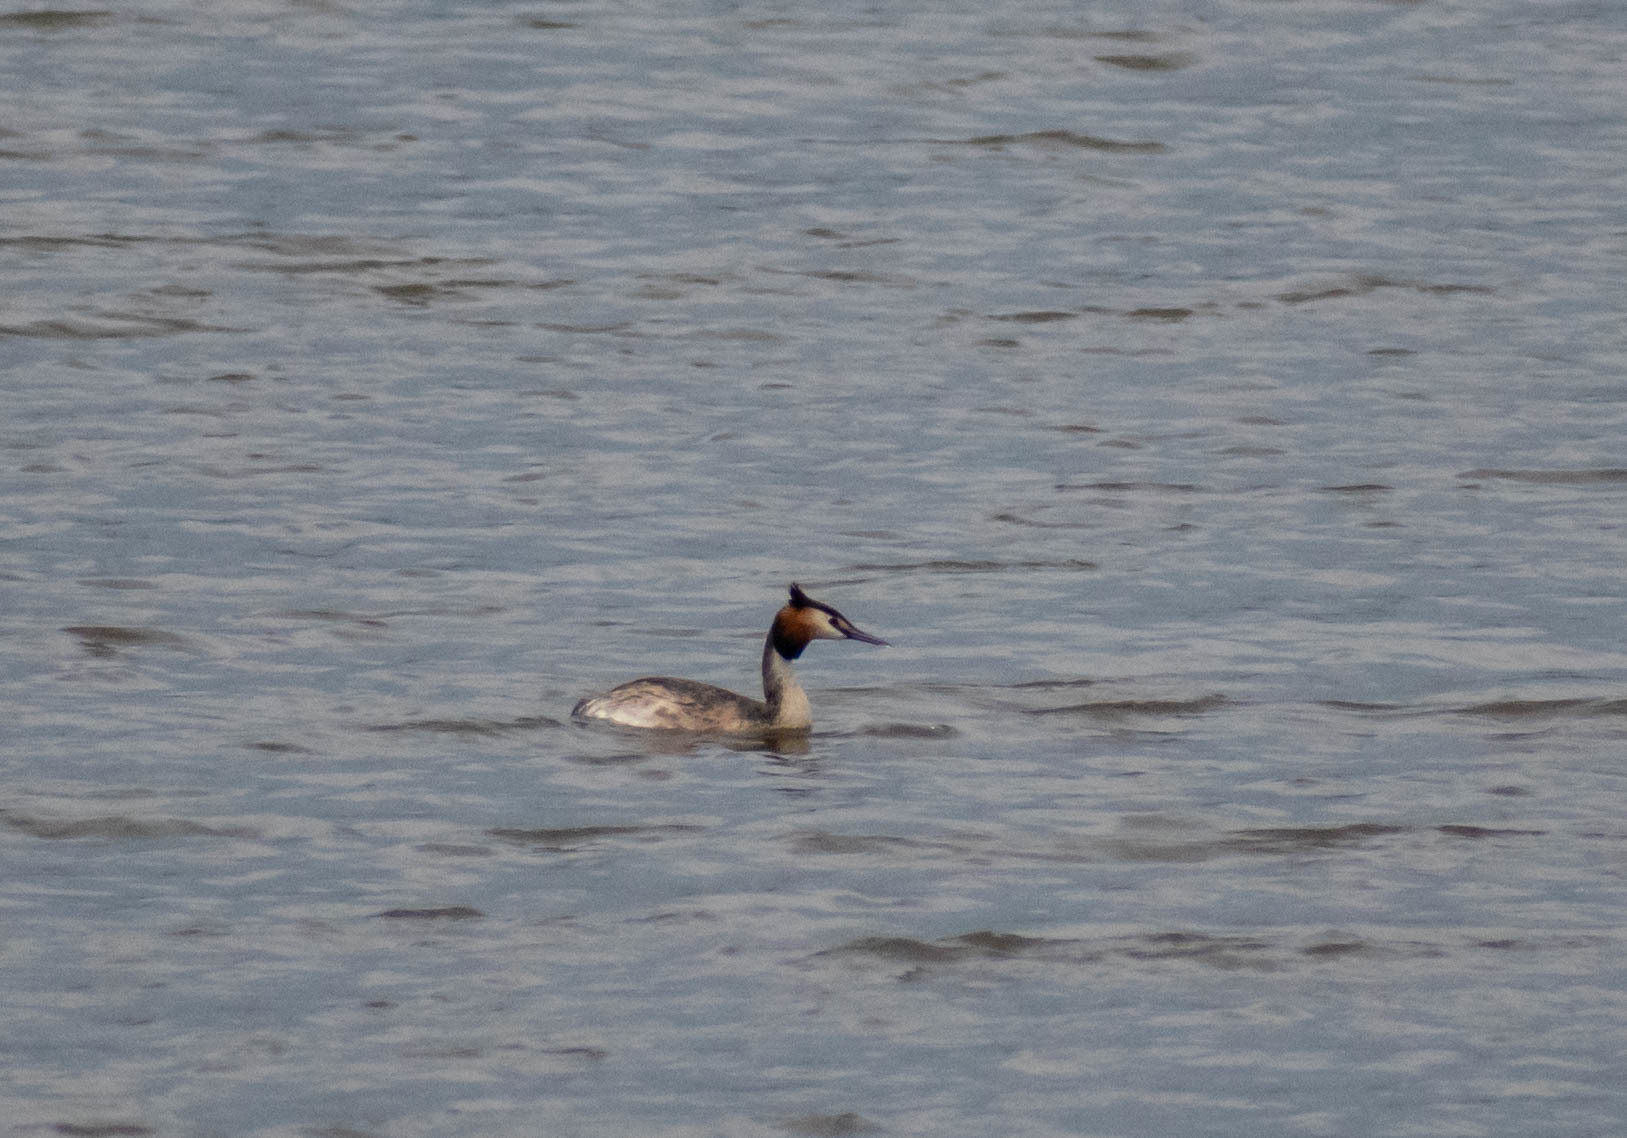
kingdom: Animalia
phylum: Chordata
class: Aves
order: Podicipediformes
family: Podicipedidae
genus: Podiceps
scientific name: Podiceps cristatus
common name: Great crested grebe
